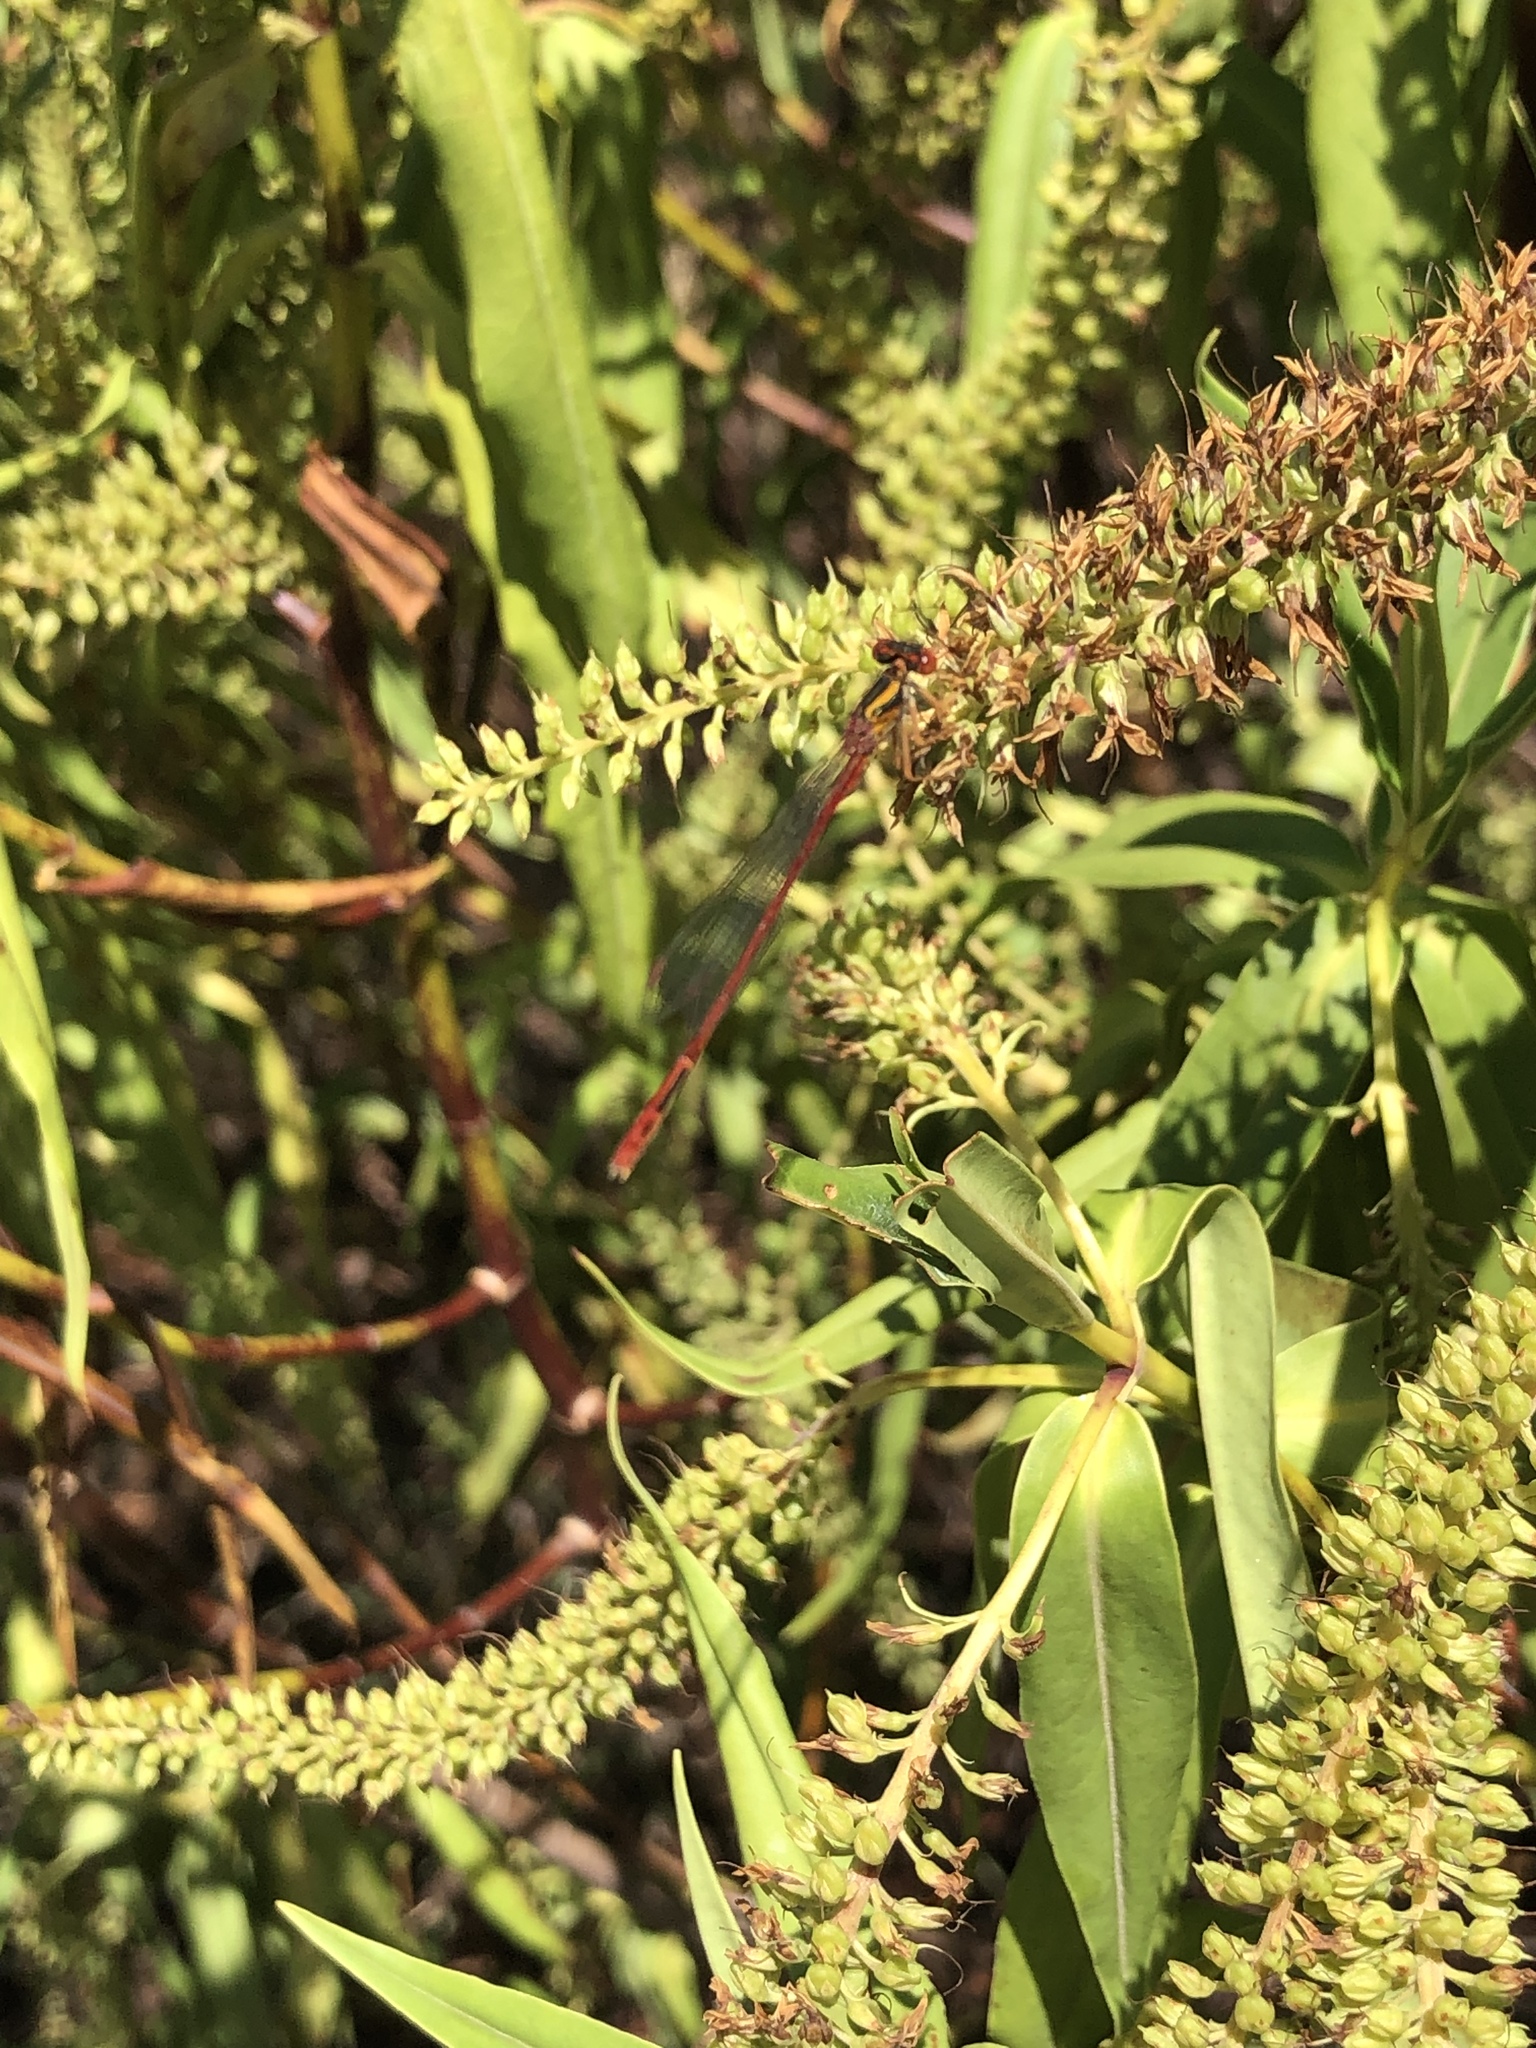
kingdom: Animalia
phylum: Arthropoda
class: Insecta
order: Odonata
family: Coenagrionidae
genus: Xanthocnemis
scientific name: Xanthocnemis zealandica
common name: Common redcoat damselfly
